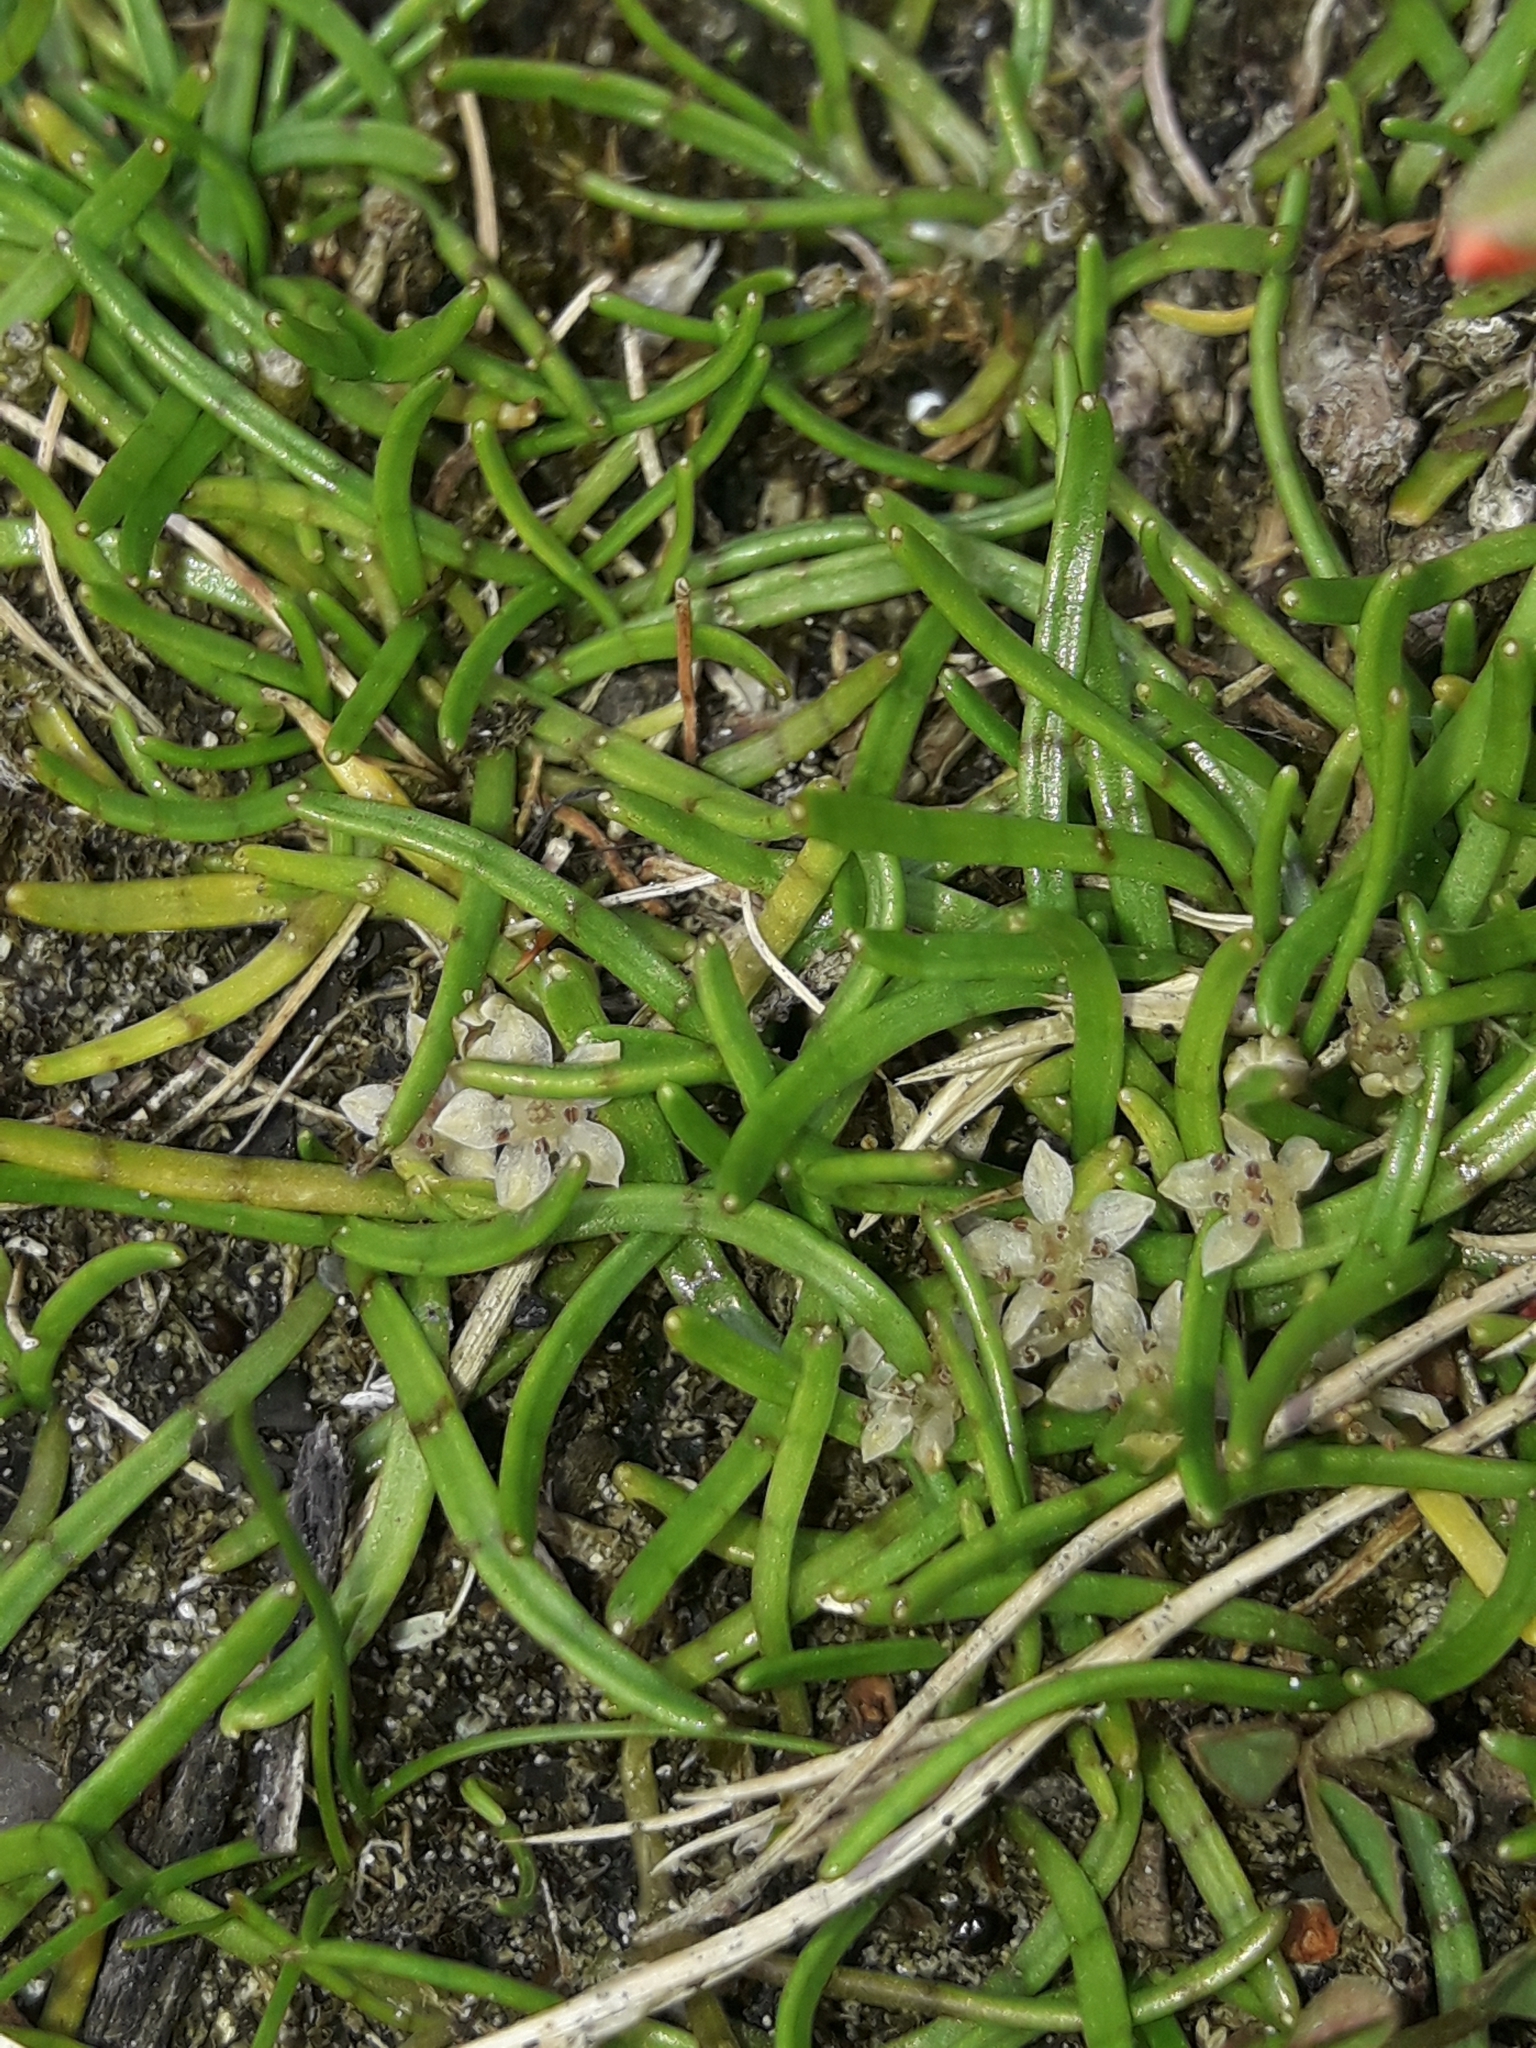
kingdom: Plantae
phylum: Tracheophyta
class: Magnoliopsida
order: Apiales
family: Apiaceae
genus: Lilaeopsis
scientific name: Lilaeopsis novae-zelandiae
